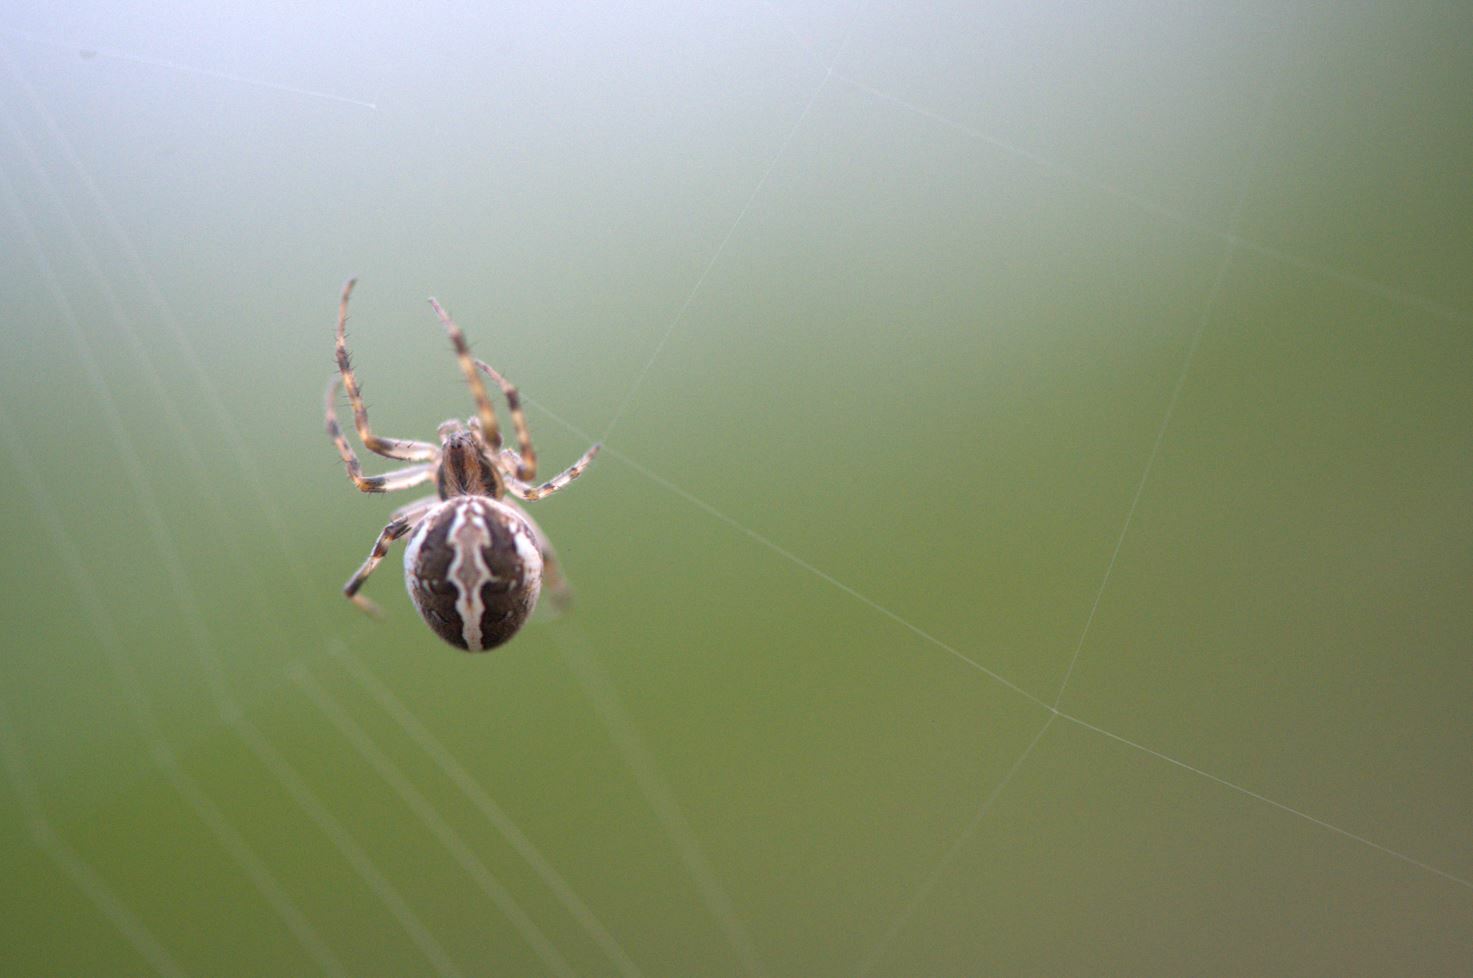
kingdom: Animalia
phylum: Arthropoda
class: Arachnida
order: Araneae
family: Araneidae
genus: Neoscona
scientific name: Neoscona theisi
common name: Spider
